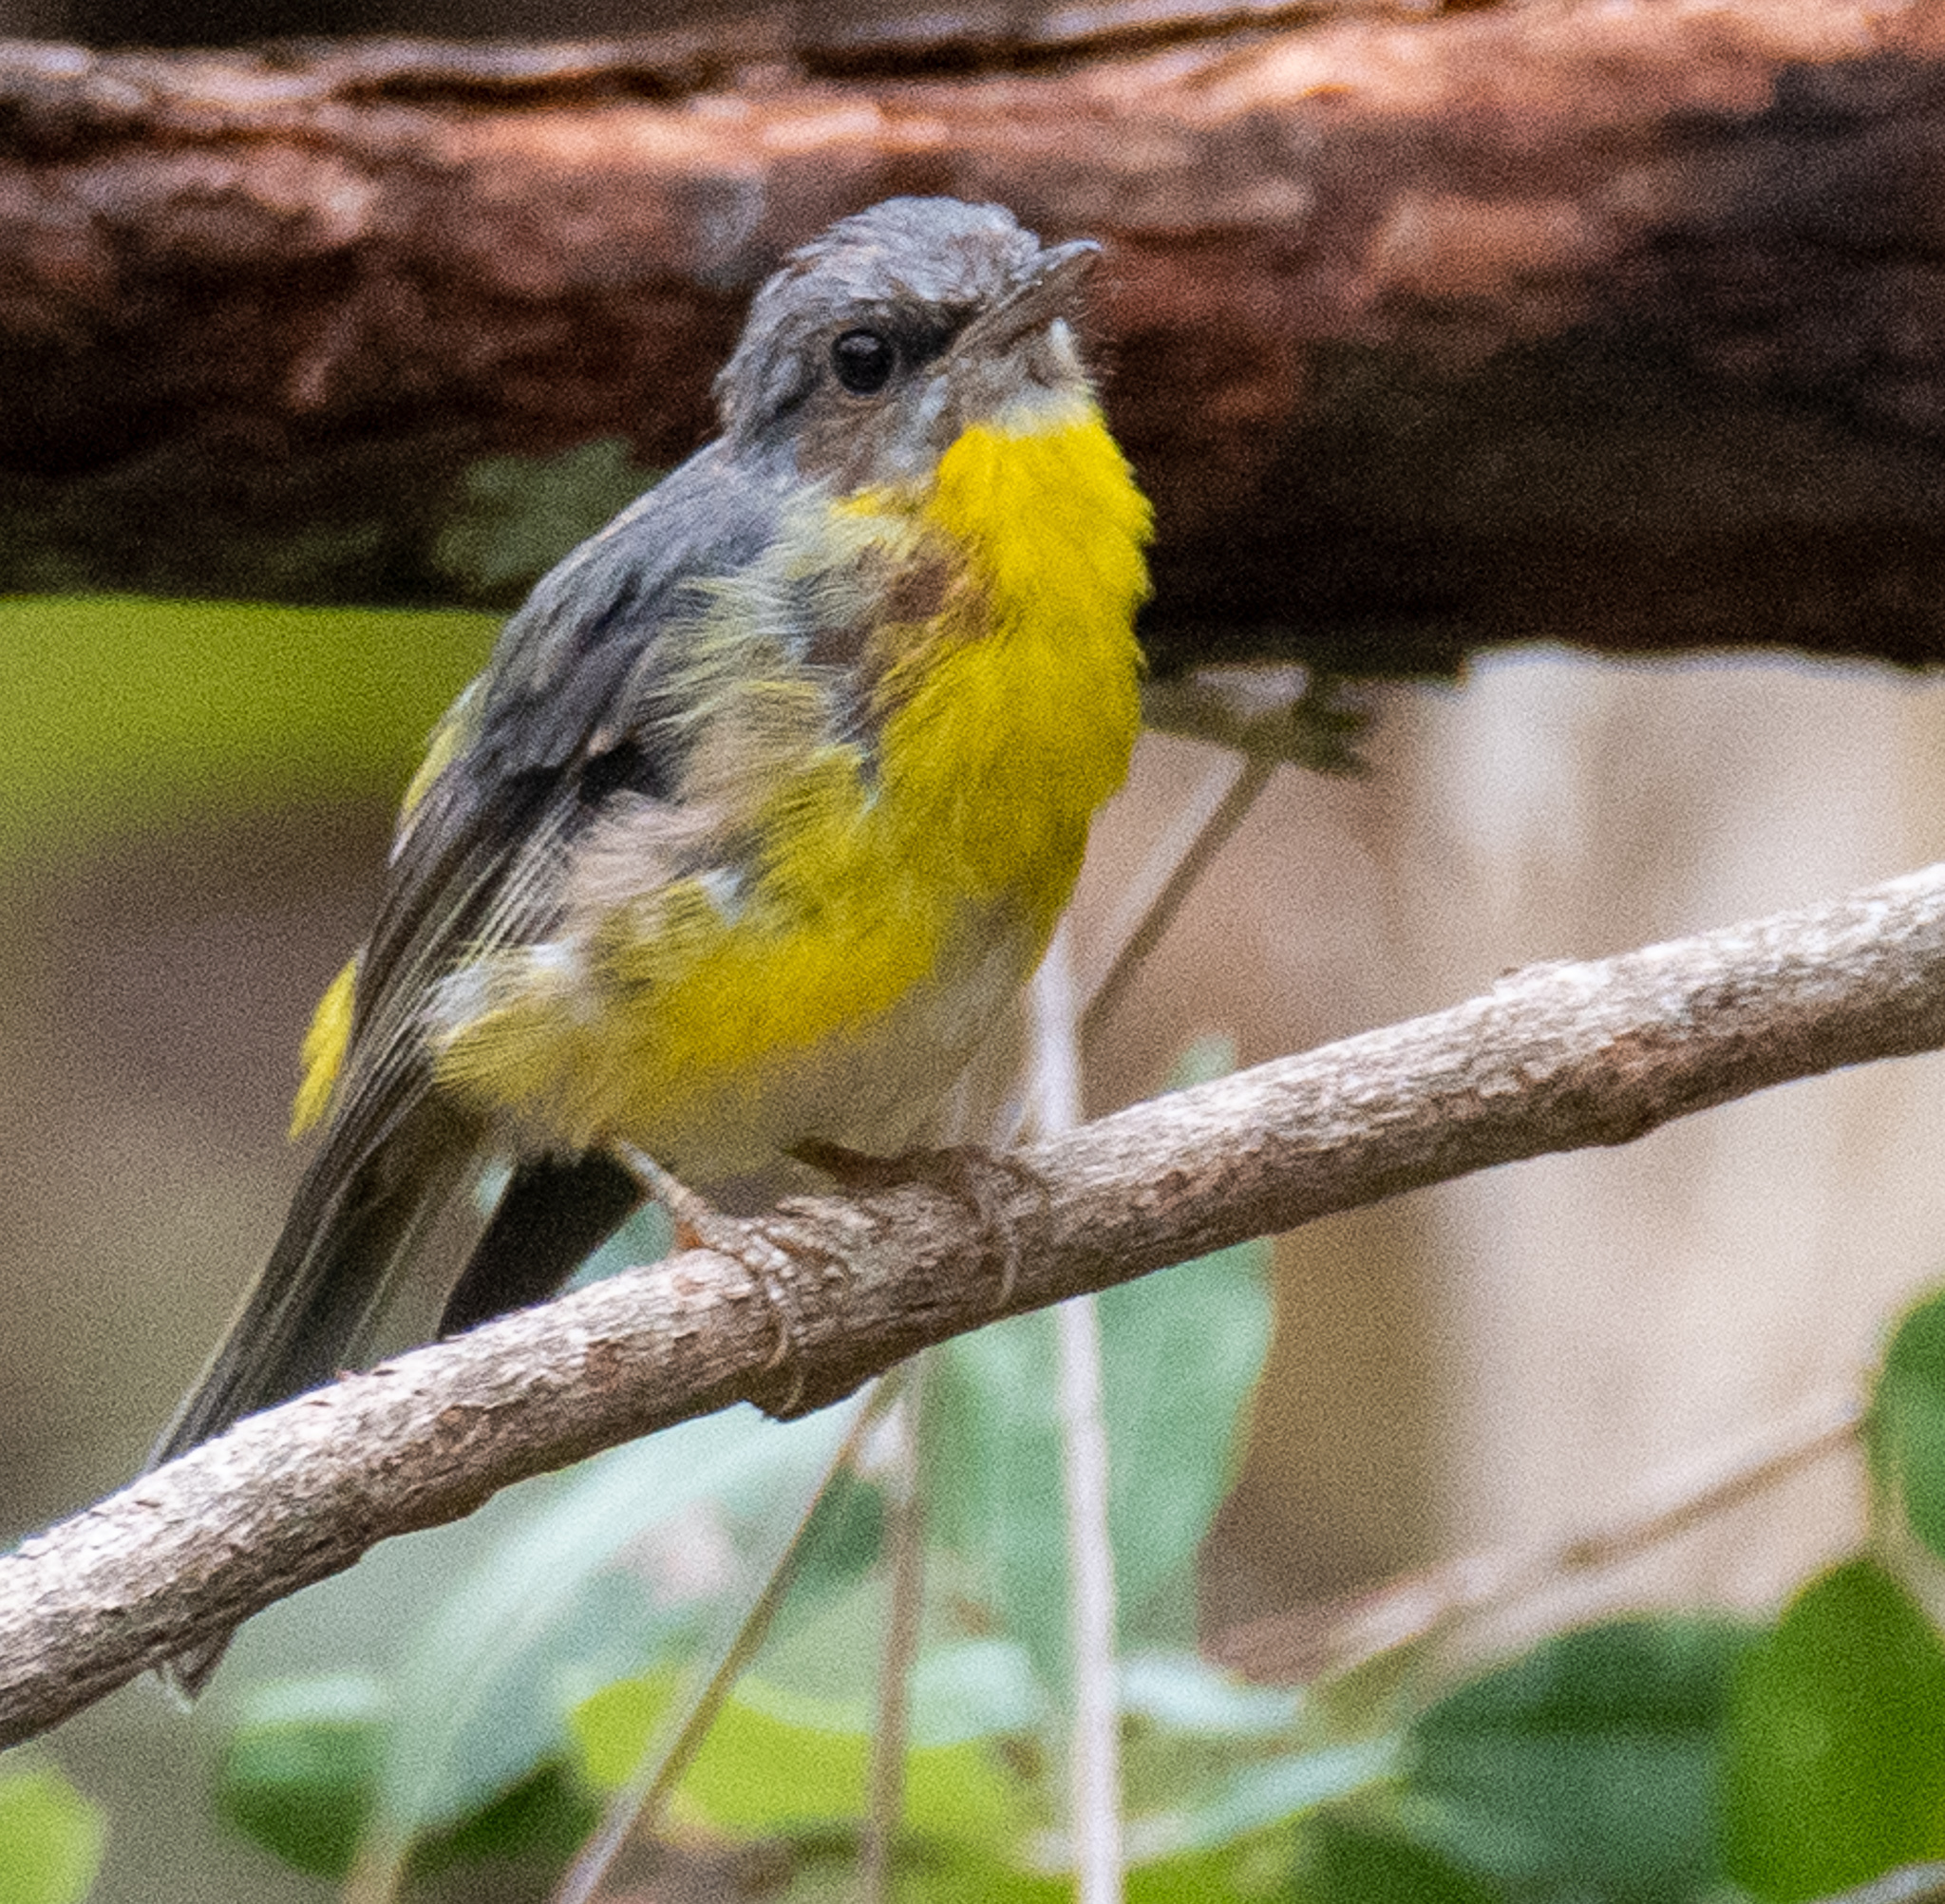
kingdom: Animalia
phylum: Chordata
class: Aves
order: Passeriformes
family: Petroicidae
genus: Eopsaltria
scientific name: Eopsaltria australis
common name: Eastern yellow robin
